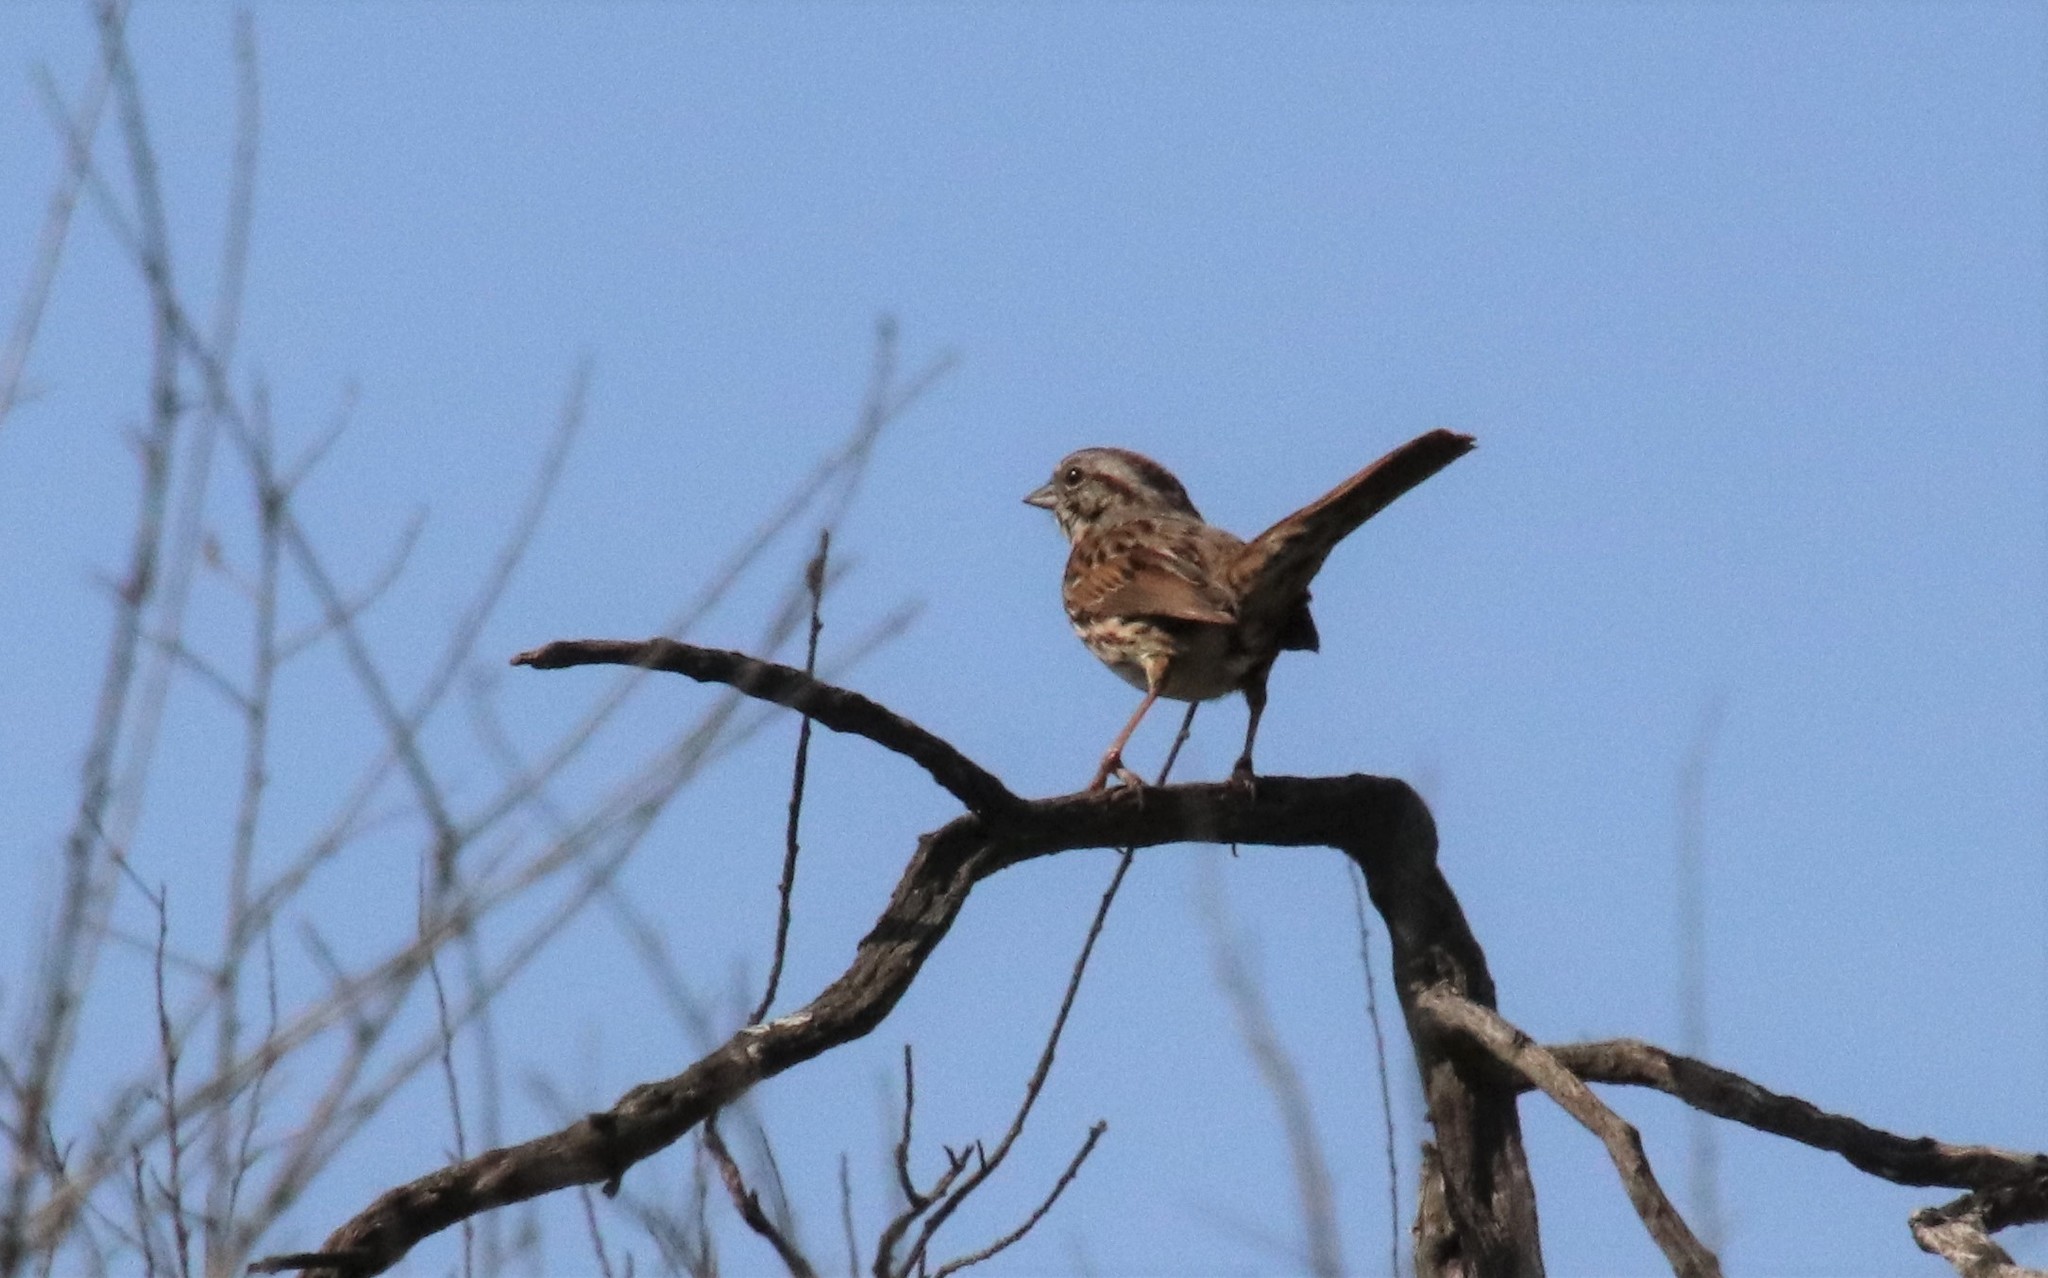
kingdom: Animalia
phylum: Chordata
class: Aves
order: Passeriformes
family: Passerellidae
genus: Melospiza
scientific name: Melospiza melodia
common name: Song sparrow
